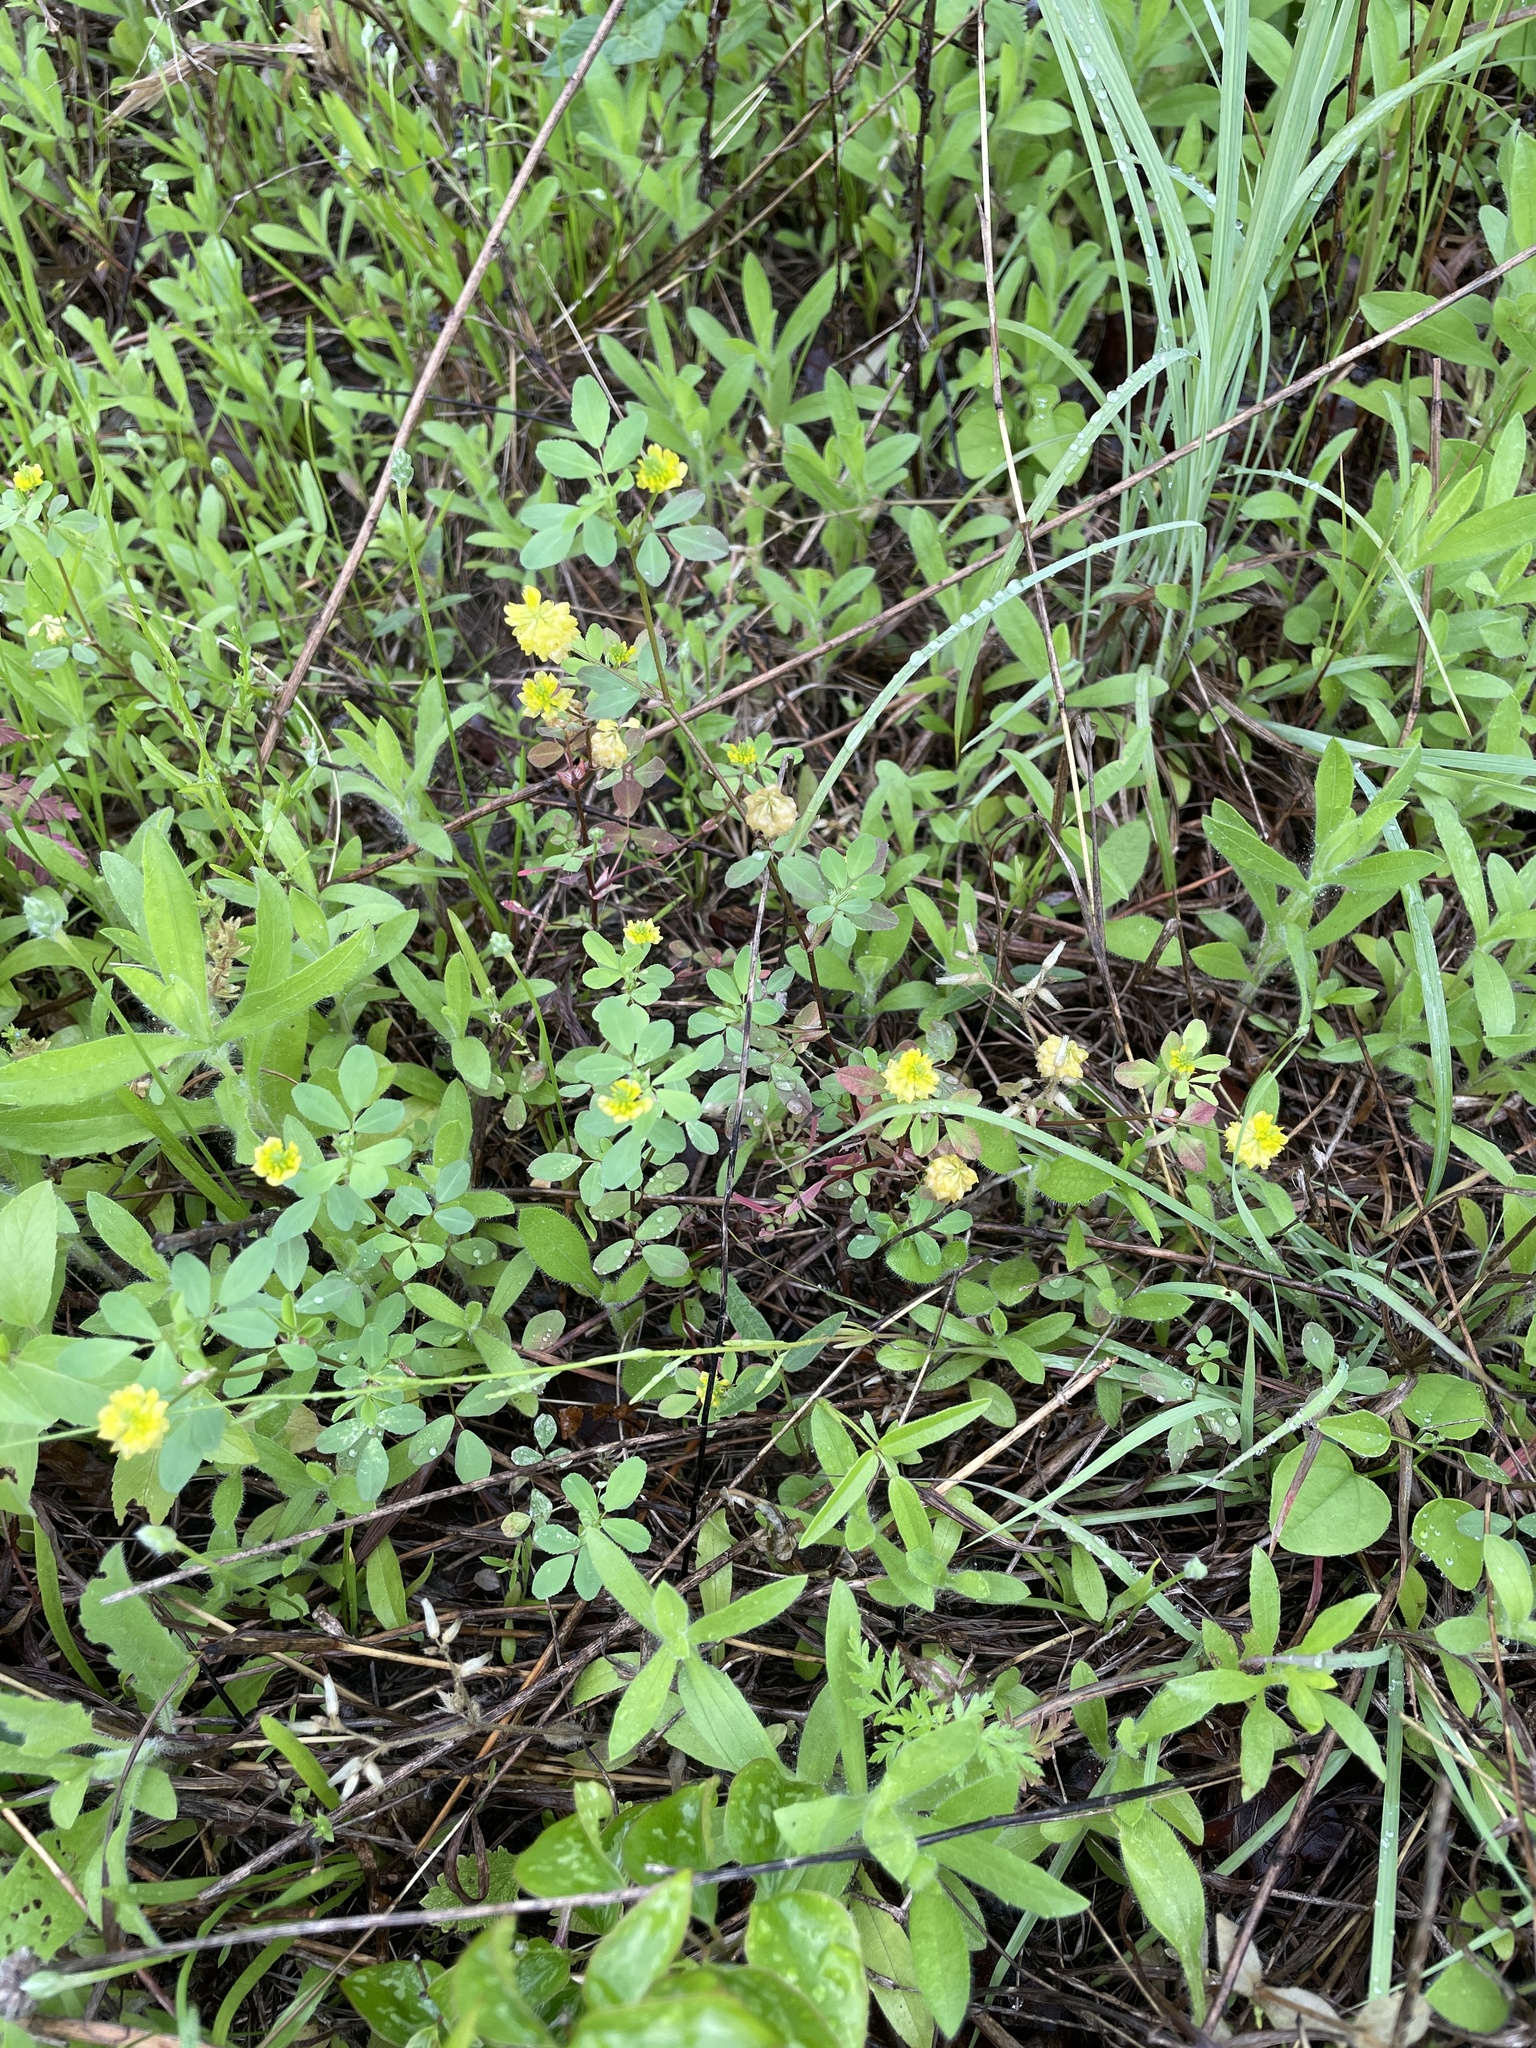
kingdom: Plantae
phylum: Tracheophyta
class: Magnoliopsida
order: Fabales
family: Fabaceae
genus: Trifolium
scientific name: Trifolium campestre
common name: Field clover
